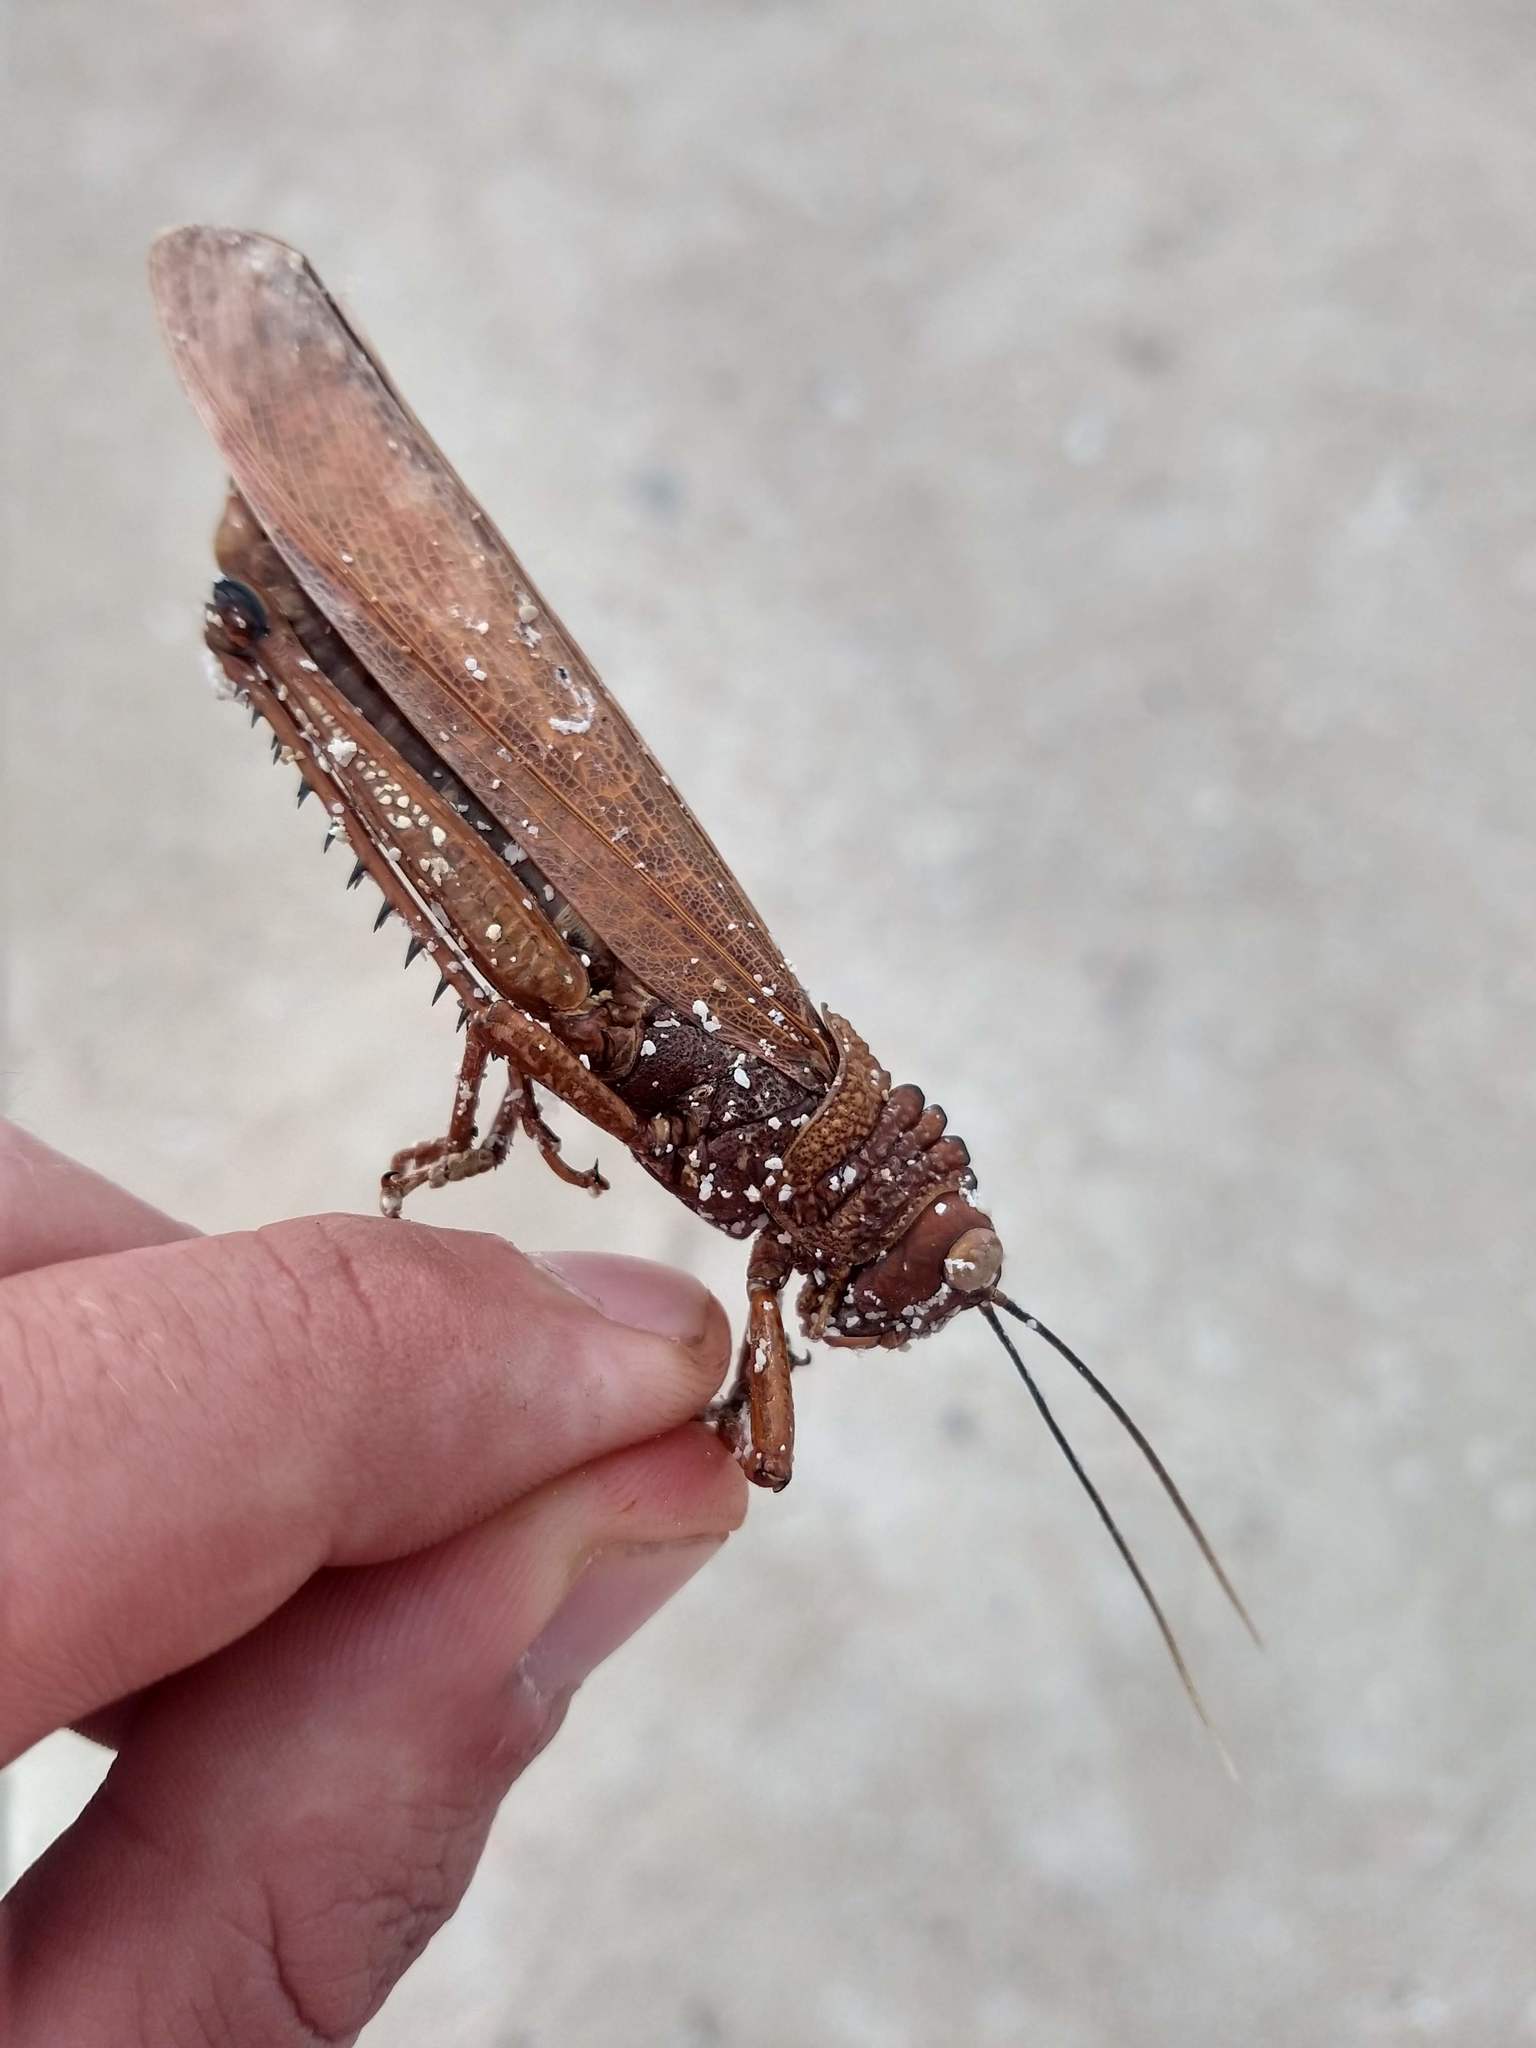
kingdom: Animalia
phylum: Arthropoda
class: Insecta
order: Orthoptera
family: Romaleidae
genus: Tropidacris
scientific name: Tropidacris cristata
